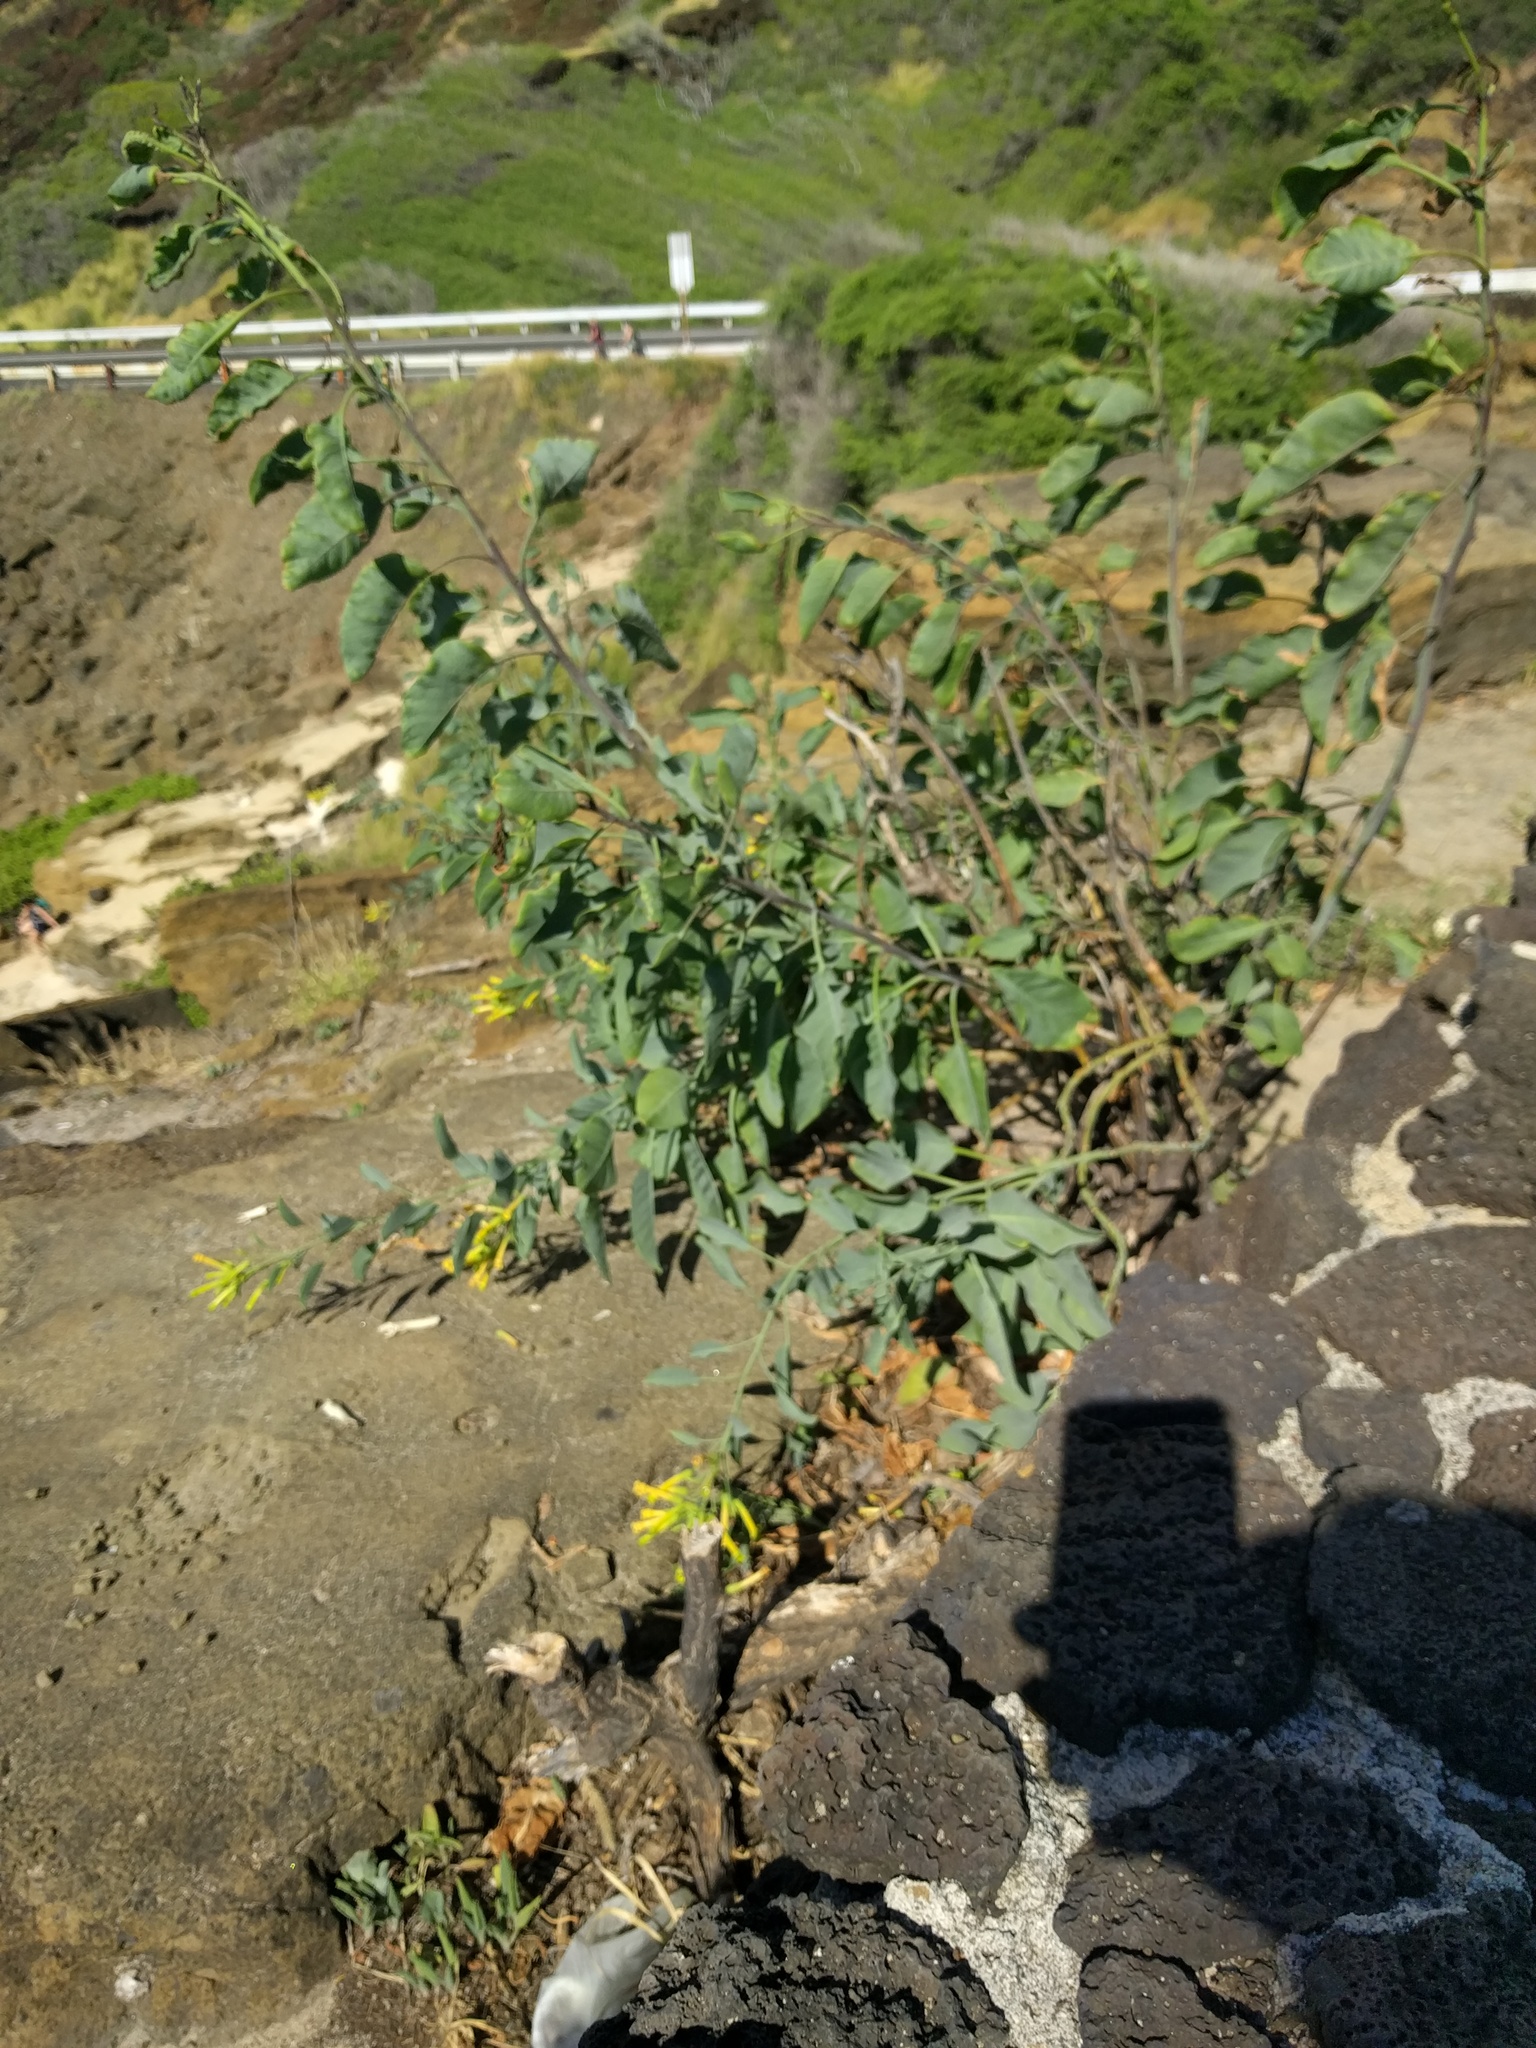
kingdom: Plantae
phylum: Tracheophyta
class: Magnoliopsida
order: Solanales
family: Solanaceae
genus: Nicotiana
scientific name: Nicotiana glauca
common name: Tree tobacco
